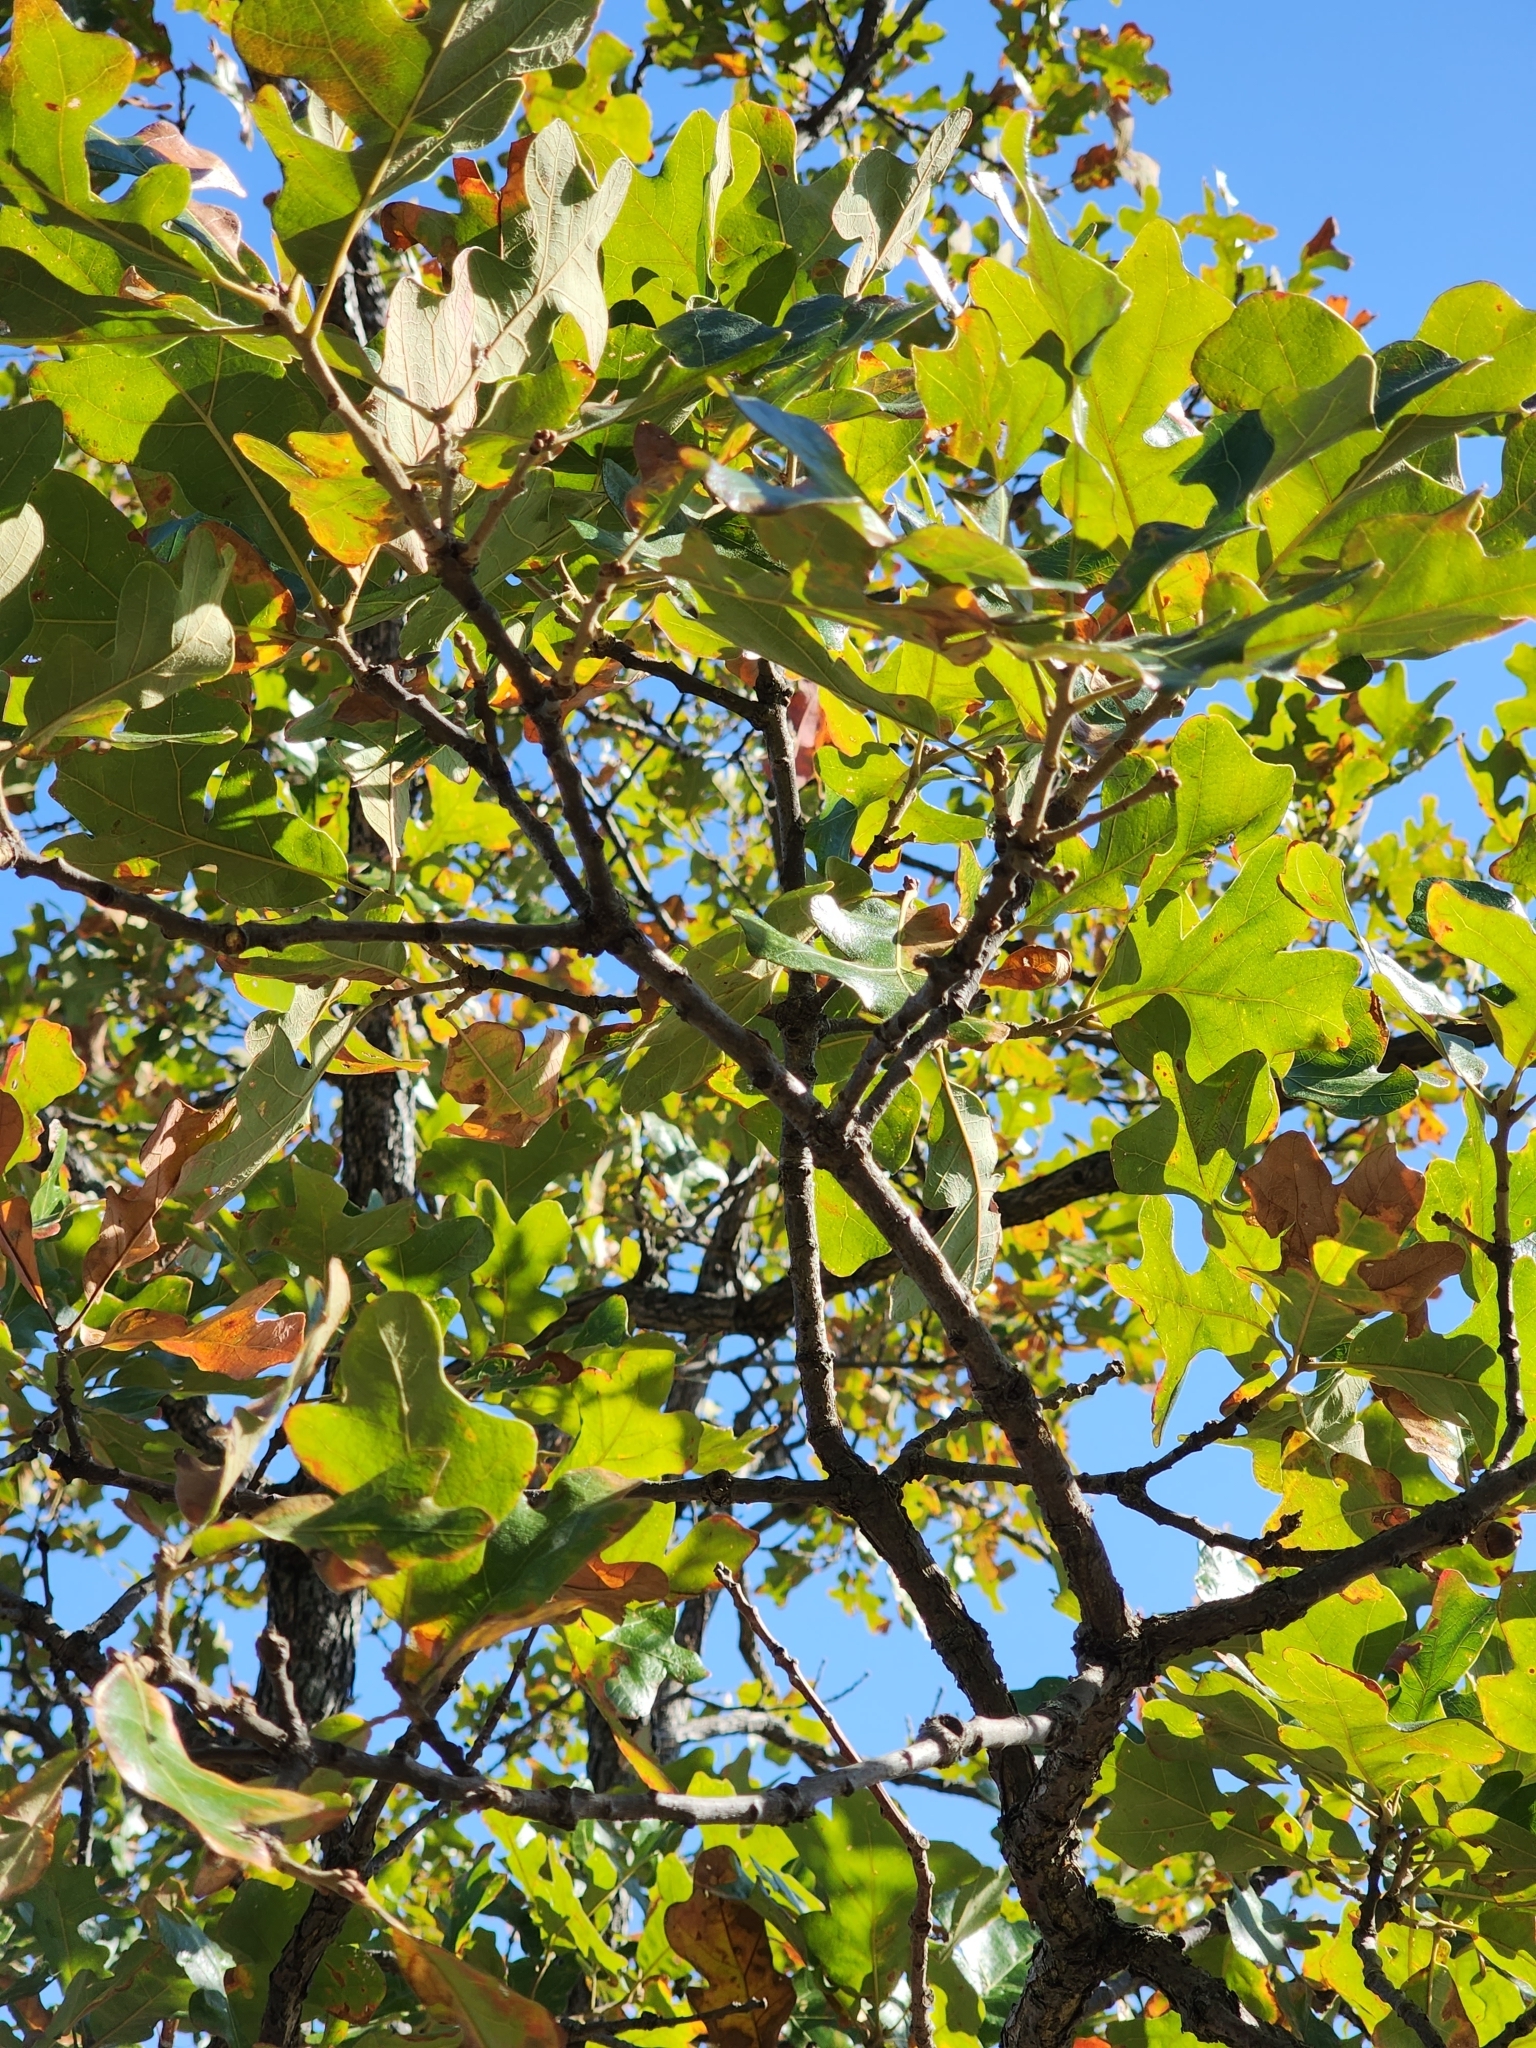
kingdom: Plantae
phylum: Tracheophyta
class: Magnoliopsida
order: Fagales
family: Fagaceae
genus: Quercus
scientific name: Quercus stellata
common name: Post oak
